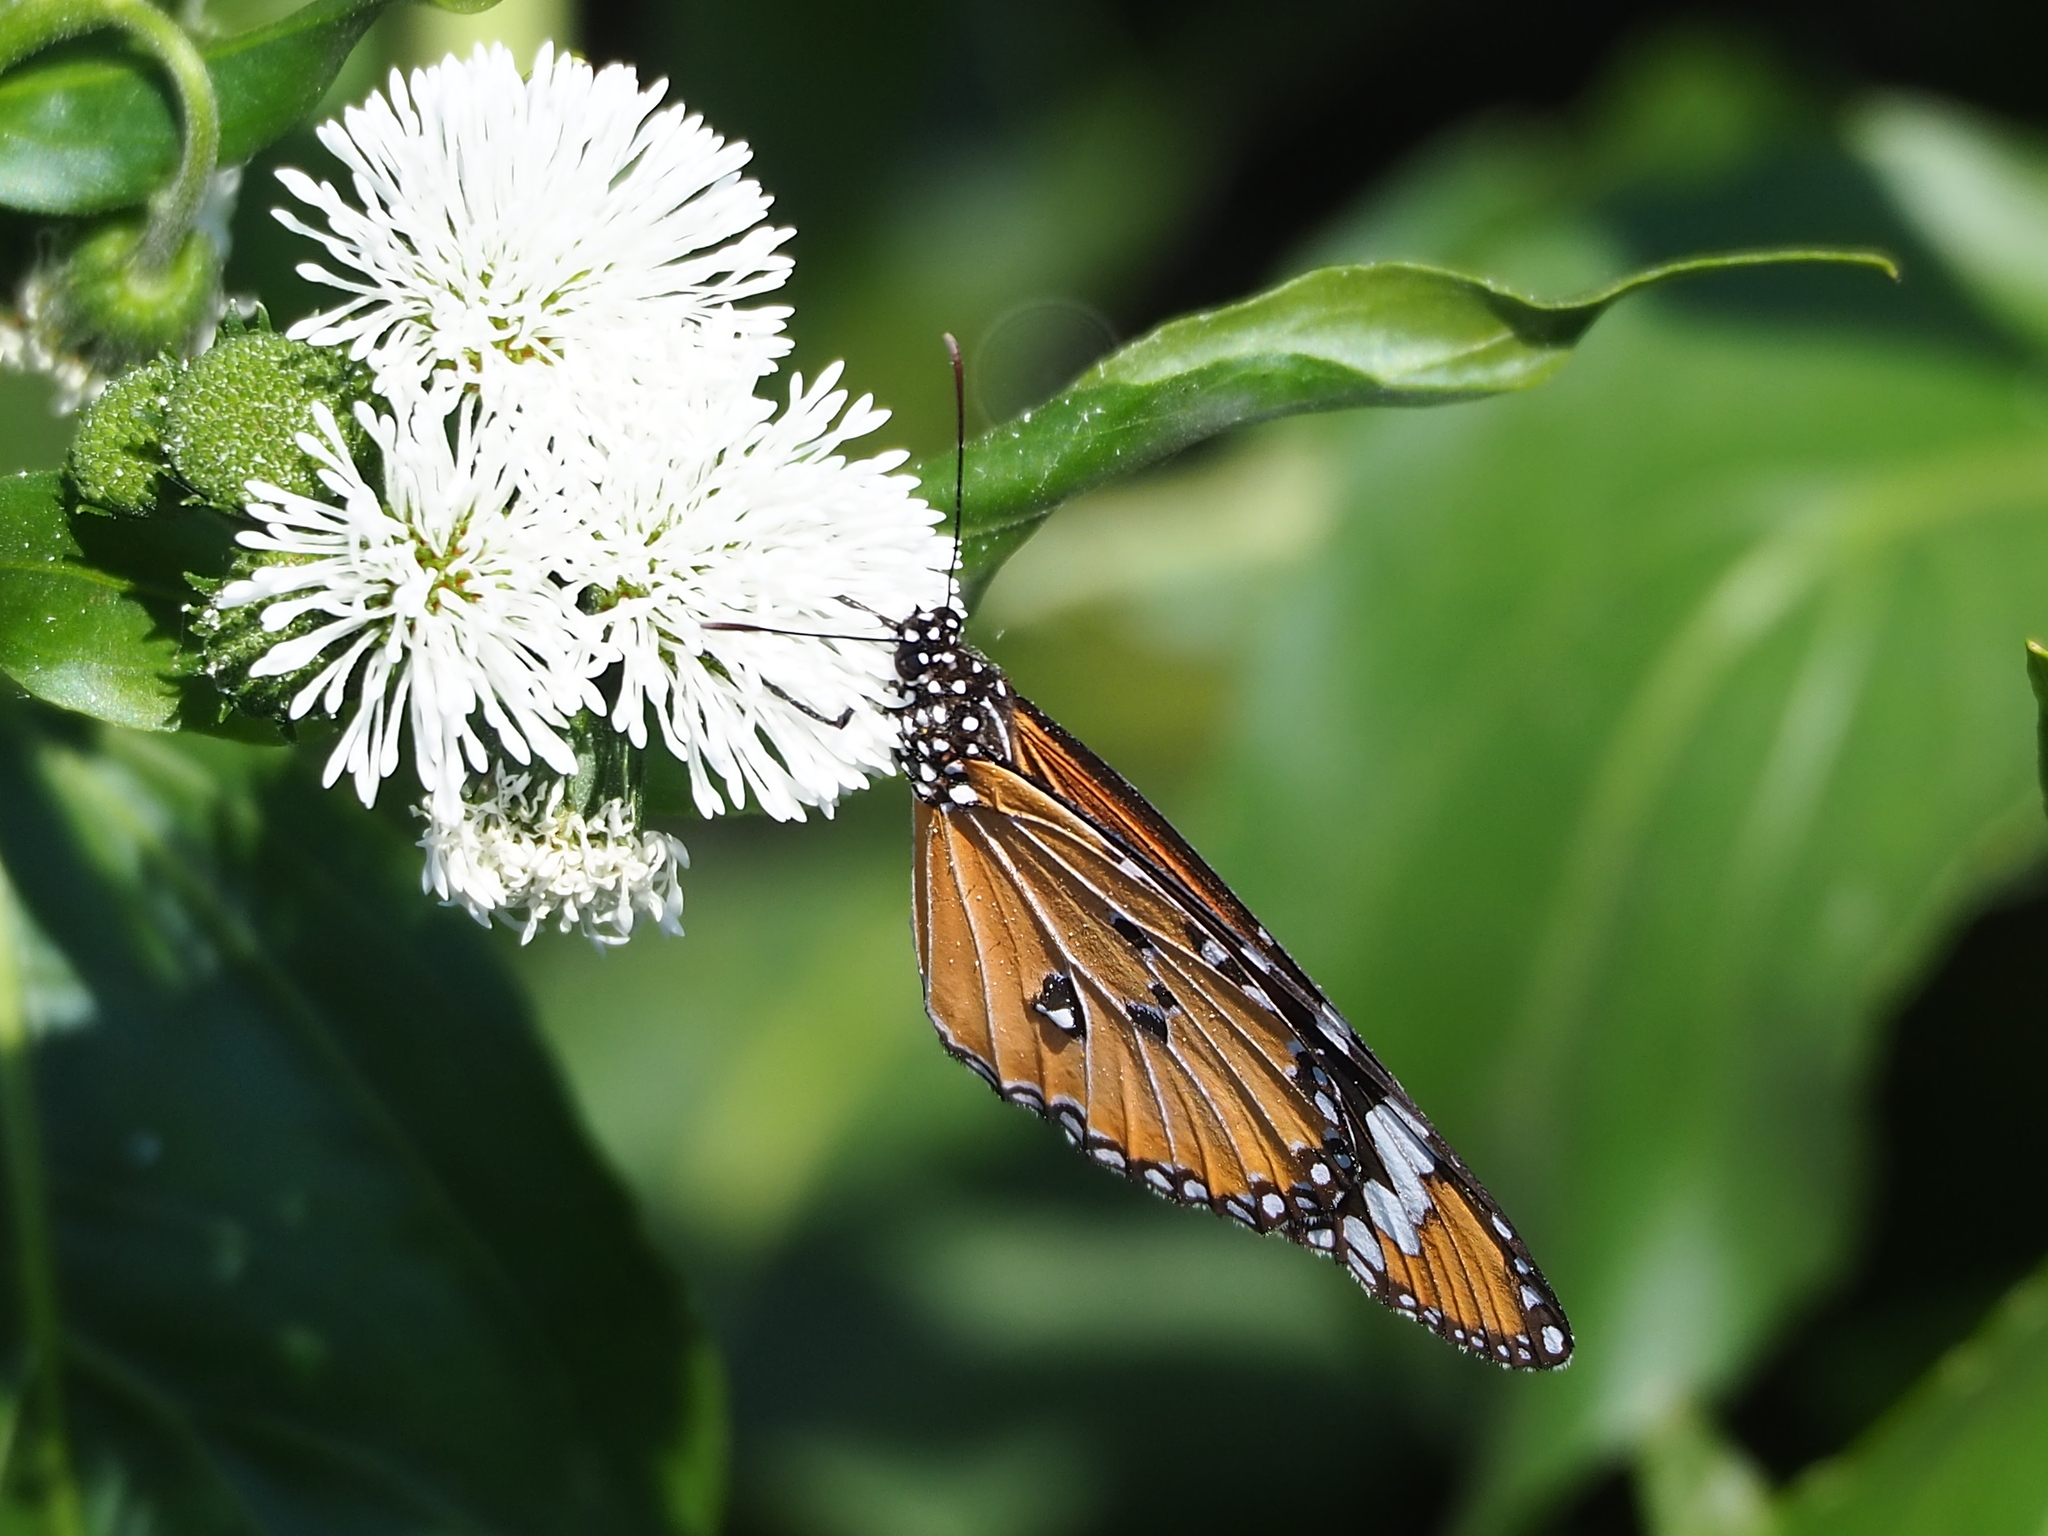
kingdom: Animalia
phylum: Arthropoda
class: Insecta
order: Lepidoptera
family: Nymphalidae
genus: Danaus
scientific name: Danaus chrysippus
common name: Plain tiger
